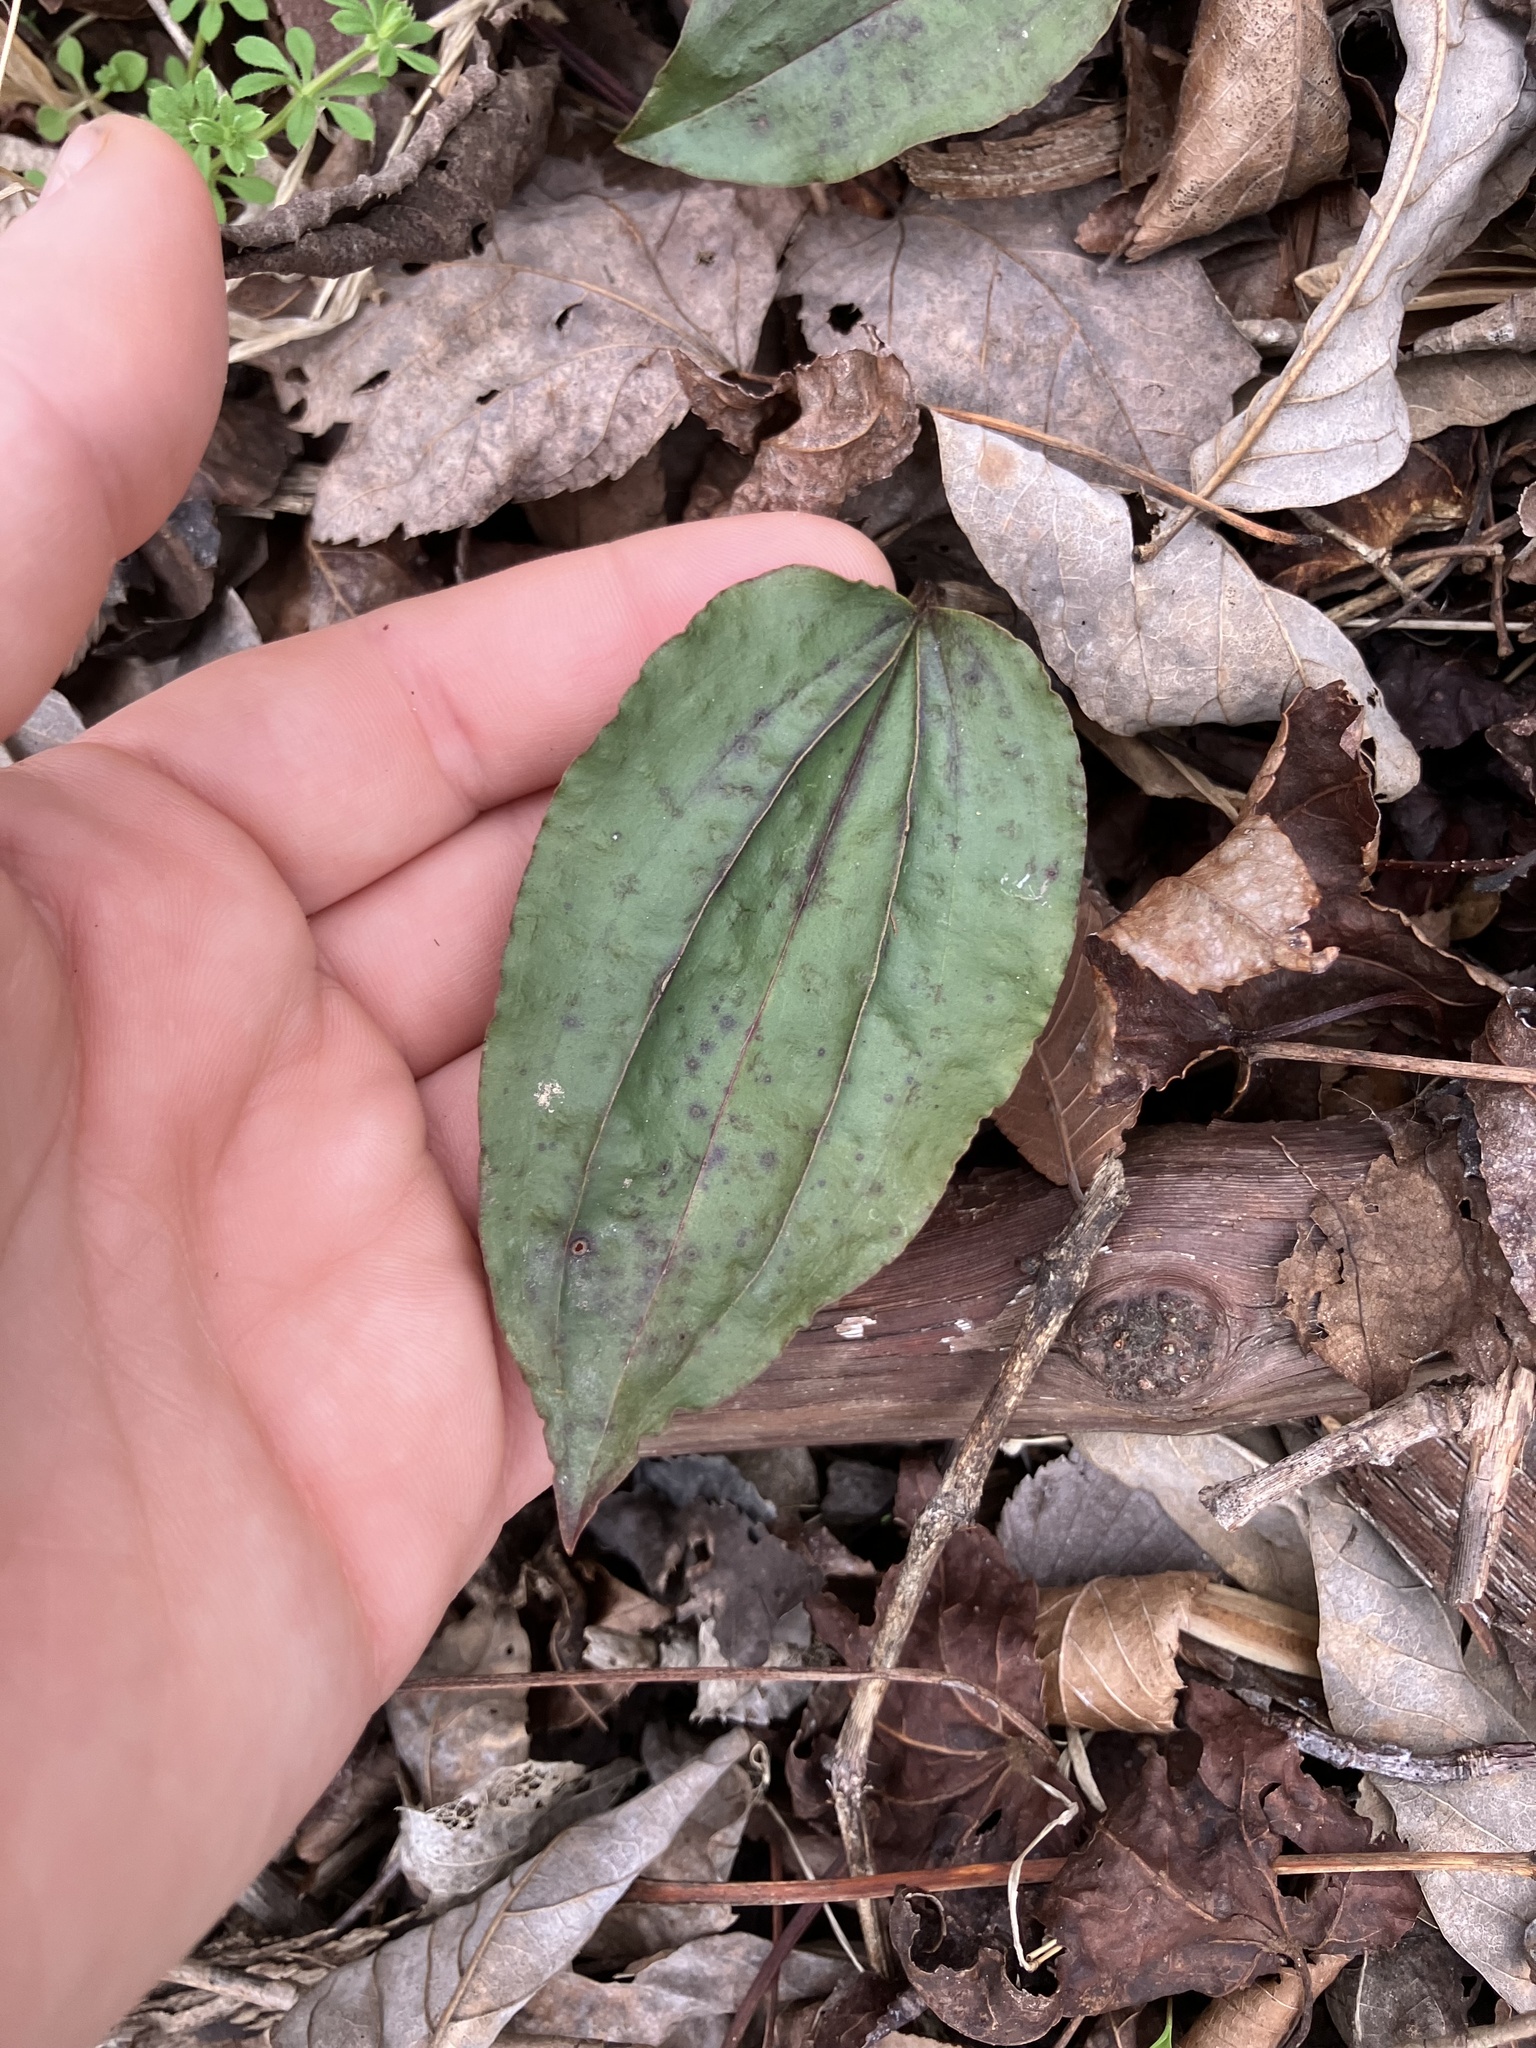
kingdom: Plantae
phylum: Tracheophyta
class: Liliopsida
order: Asparagales
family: Orchidaceae
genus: Tipularia
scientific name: Tipularia discolor
